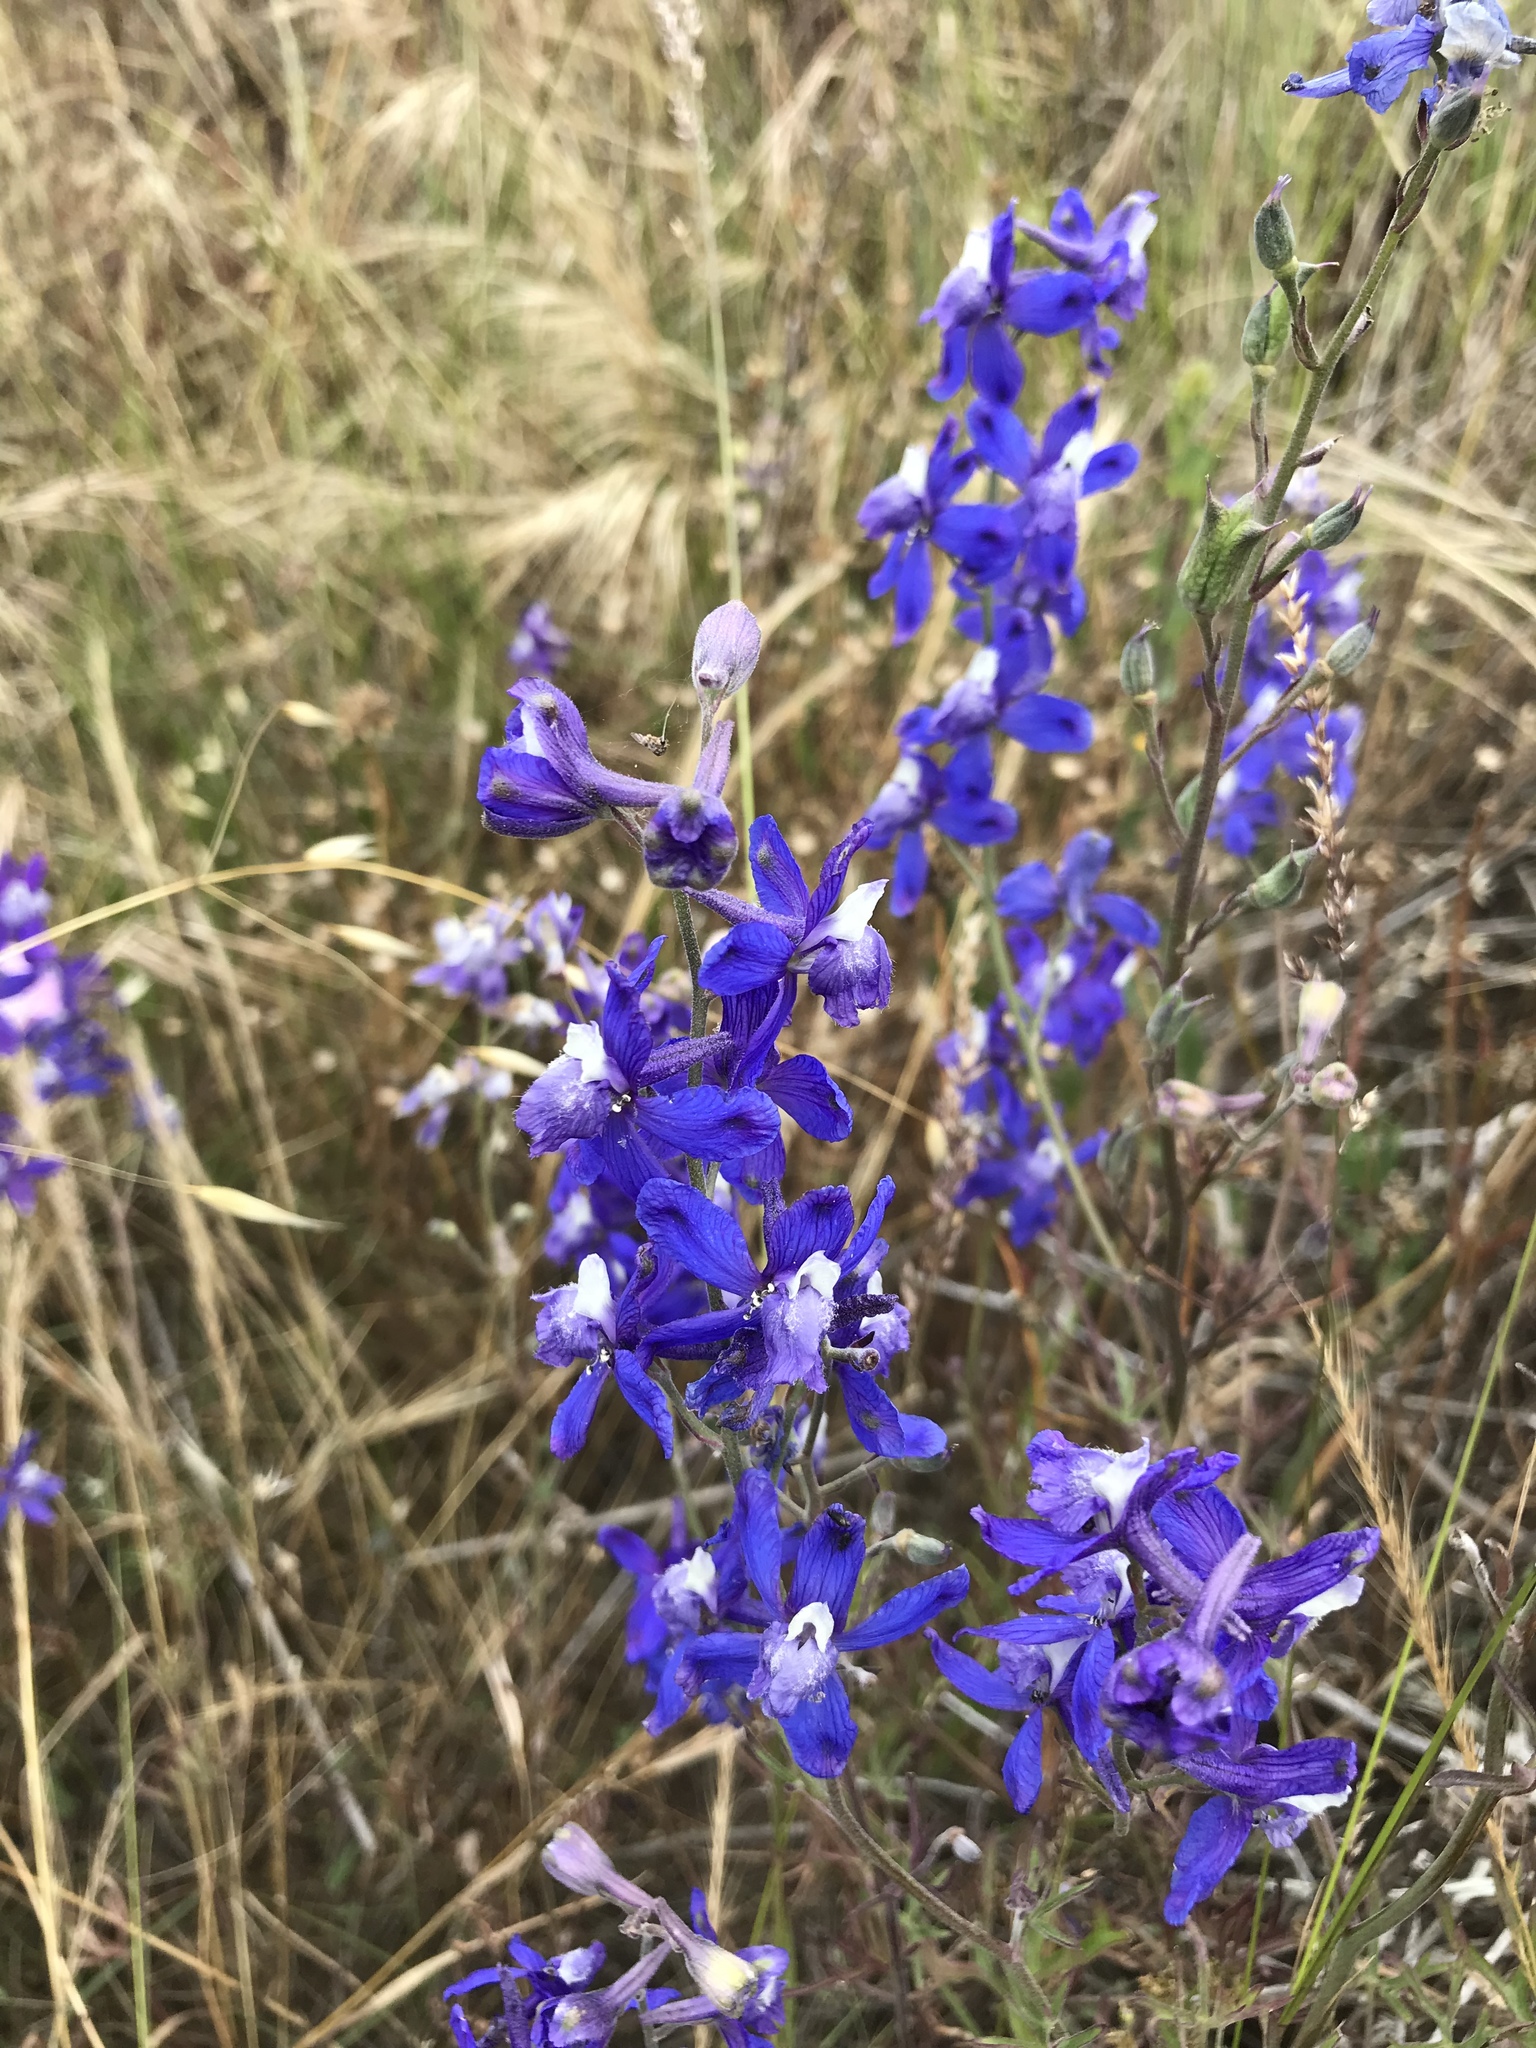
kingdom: Plantae
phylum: Tracheophyta
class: Magnoliopsida
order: Ranunculales
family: Ranunculaceae
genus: Delphinium
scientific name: Delphinium parryi
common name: Parry's larkspur
